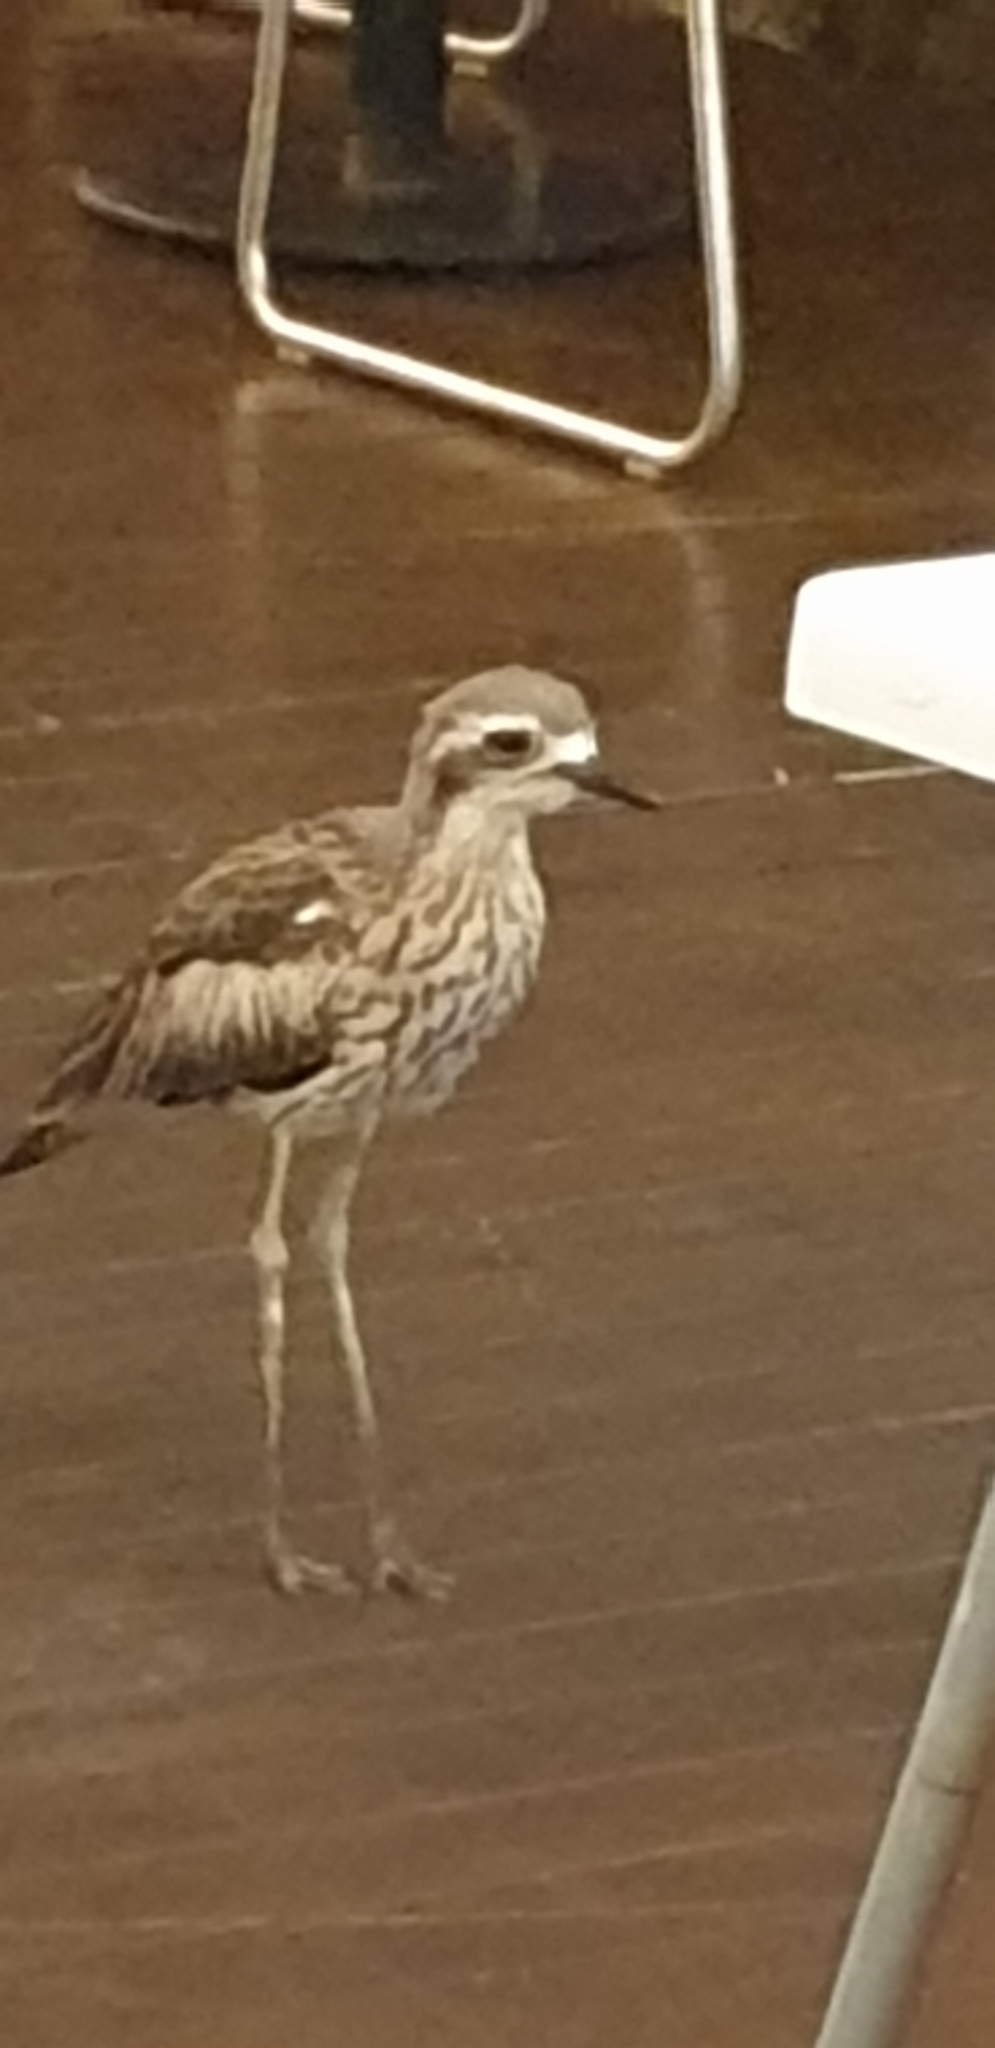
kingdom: Animalia
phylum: Chordata
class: Aves
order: Charadriiformes
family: Burhinidae
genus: Burhinus
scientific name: Burhinus grallarius
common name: Bush stone-curlew
